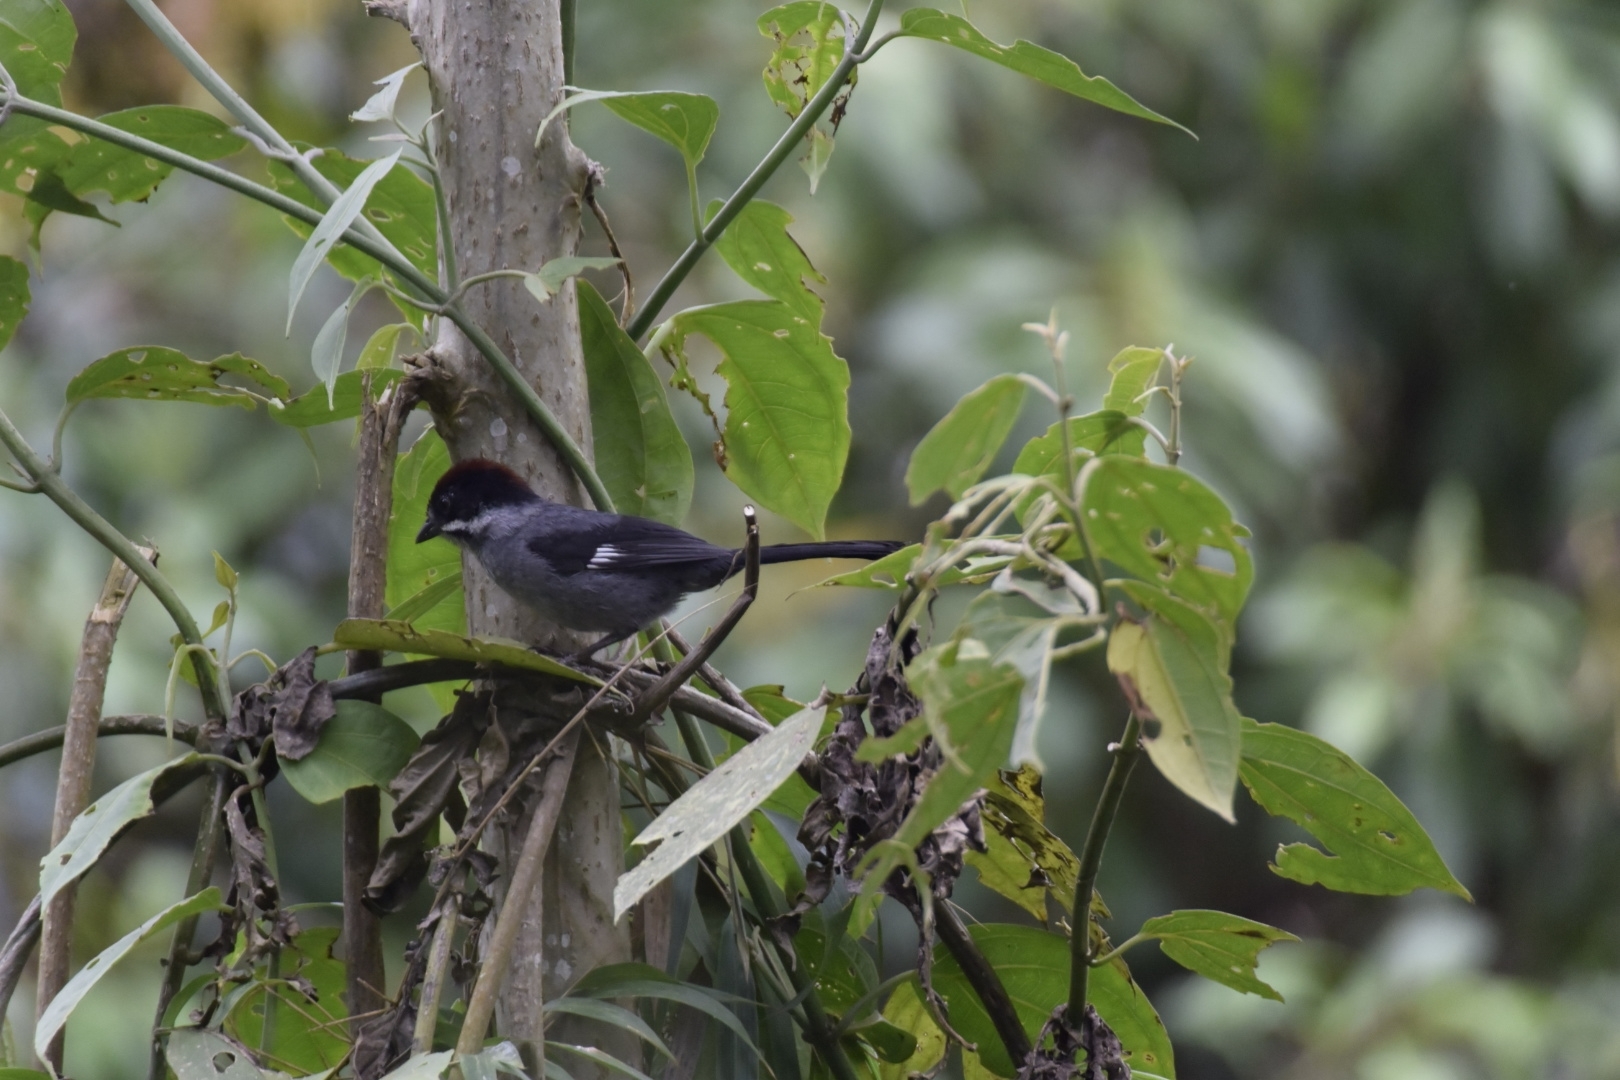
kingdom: Animalia
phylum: Chordata
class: Aves
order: Passeriformes
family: Passerellidae
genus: Atlapetes
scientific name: Atlapetes schistaceus
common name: Slaty brushfinch
